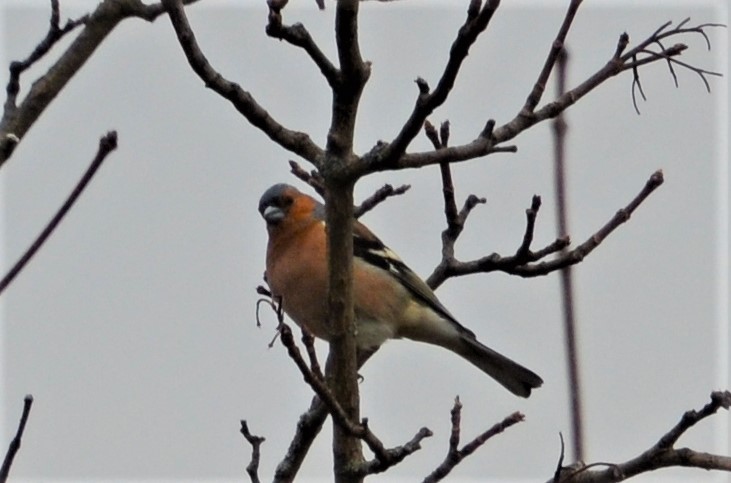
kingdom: Animalia
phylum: Chordata
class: Aves
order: Passeriformes
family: Fringillidae
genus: Fringilla
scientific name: Fringilla coelebs
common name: Common chaffinch
